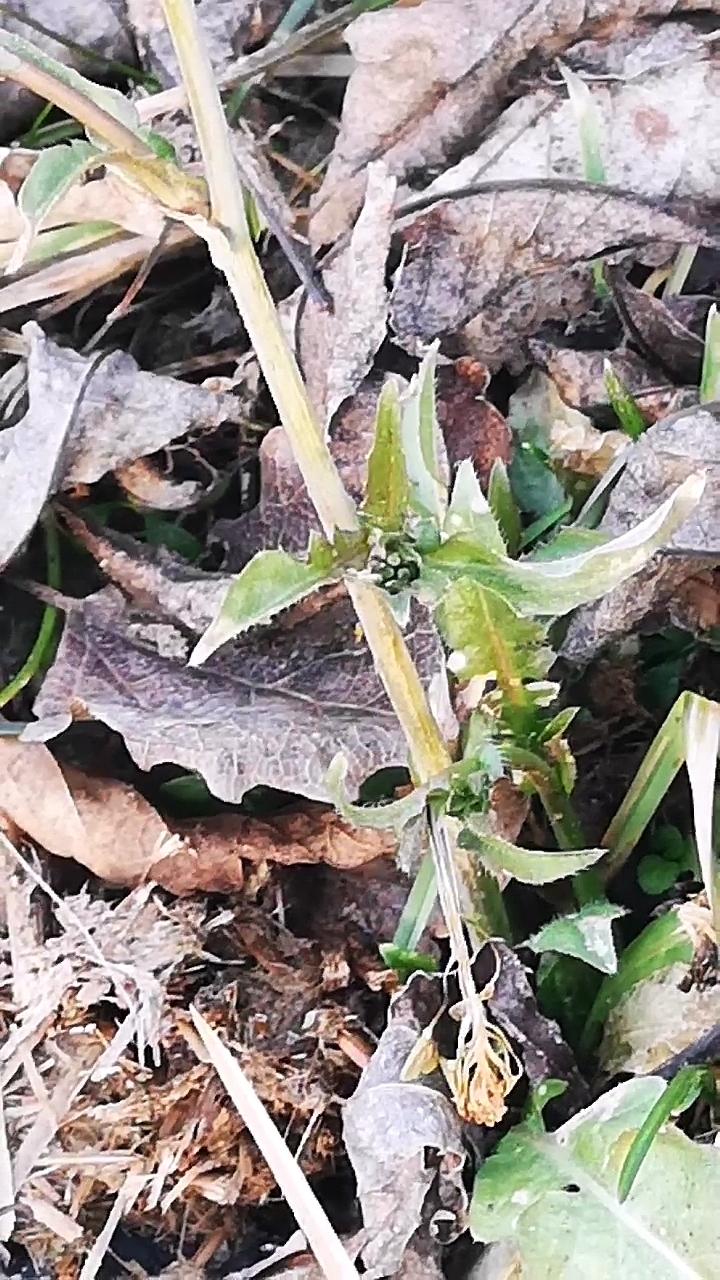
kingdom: Plantae
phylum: Tracheophyta
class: Magnoliopsida
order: Brassicales
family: Brassicaceae
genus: Capsella
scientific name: Capsella bursa-pastoris
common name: Shepherd's purse
